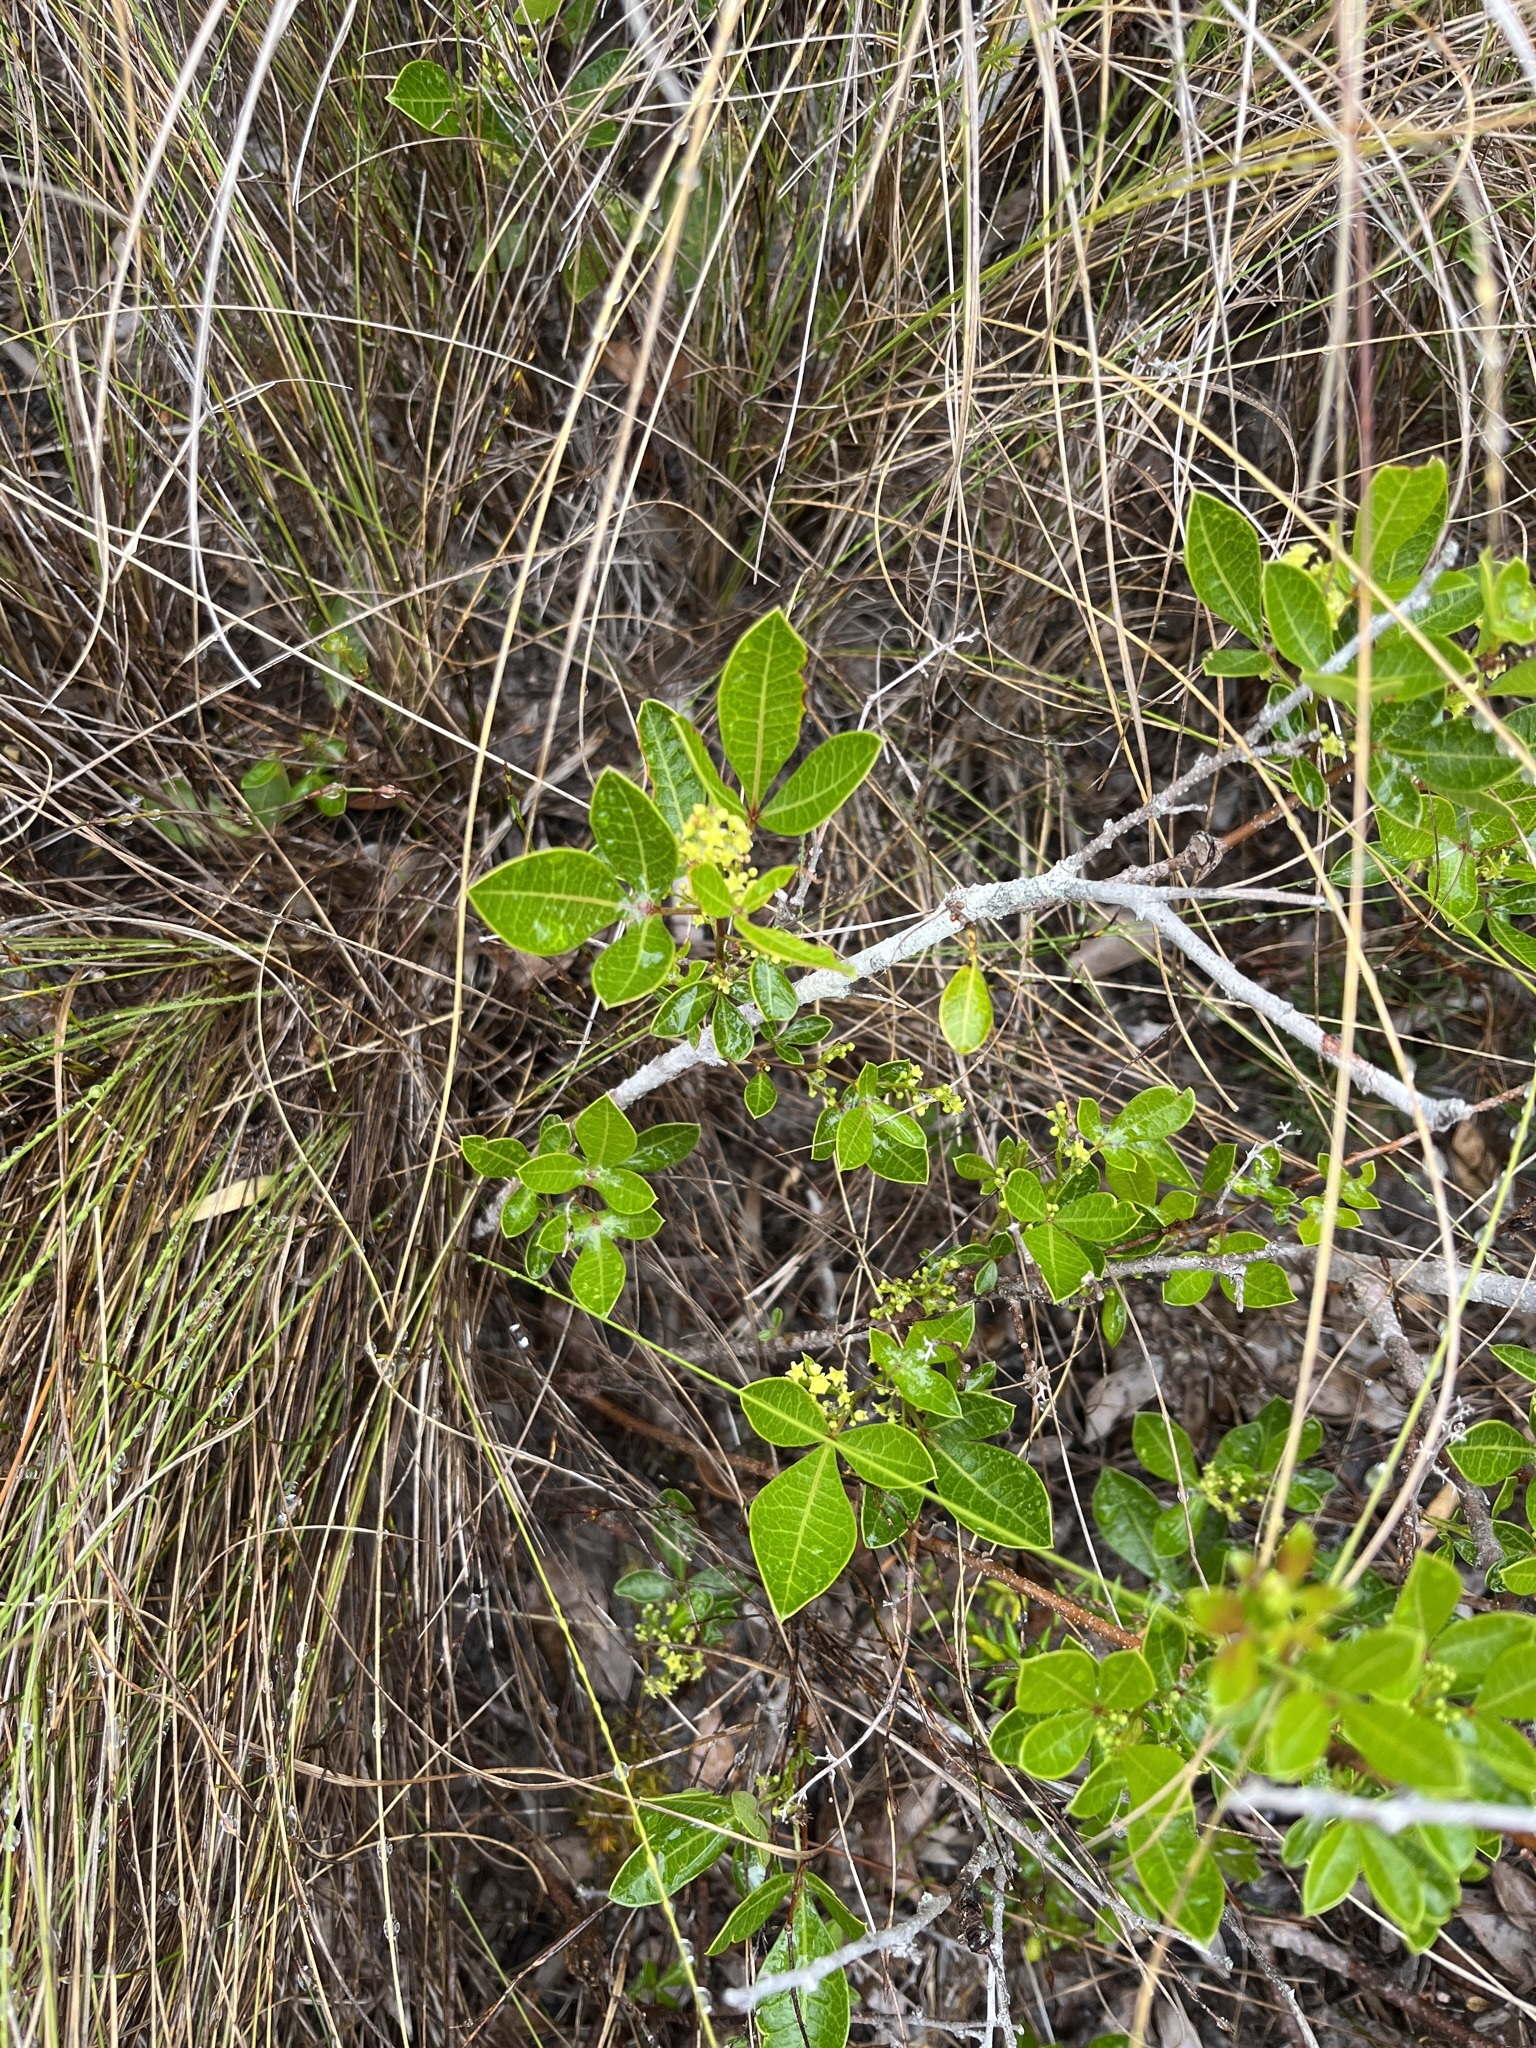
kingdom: Plantae
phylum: Tracheophyta
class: Magnoliopsida
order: Sapindales
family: Anacardiaceae
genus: Searsia
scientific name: Searsia laevigata
